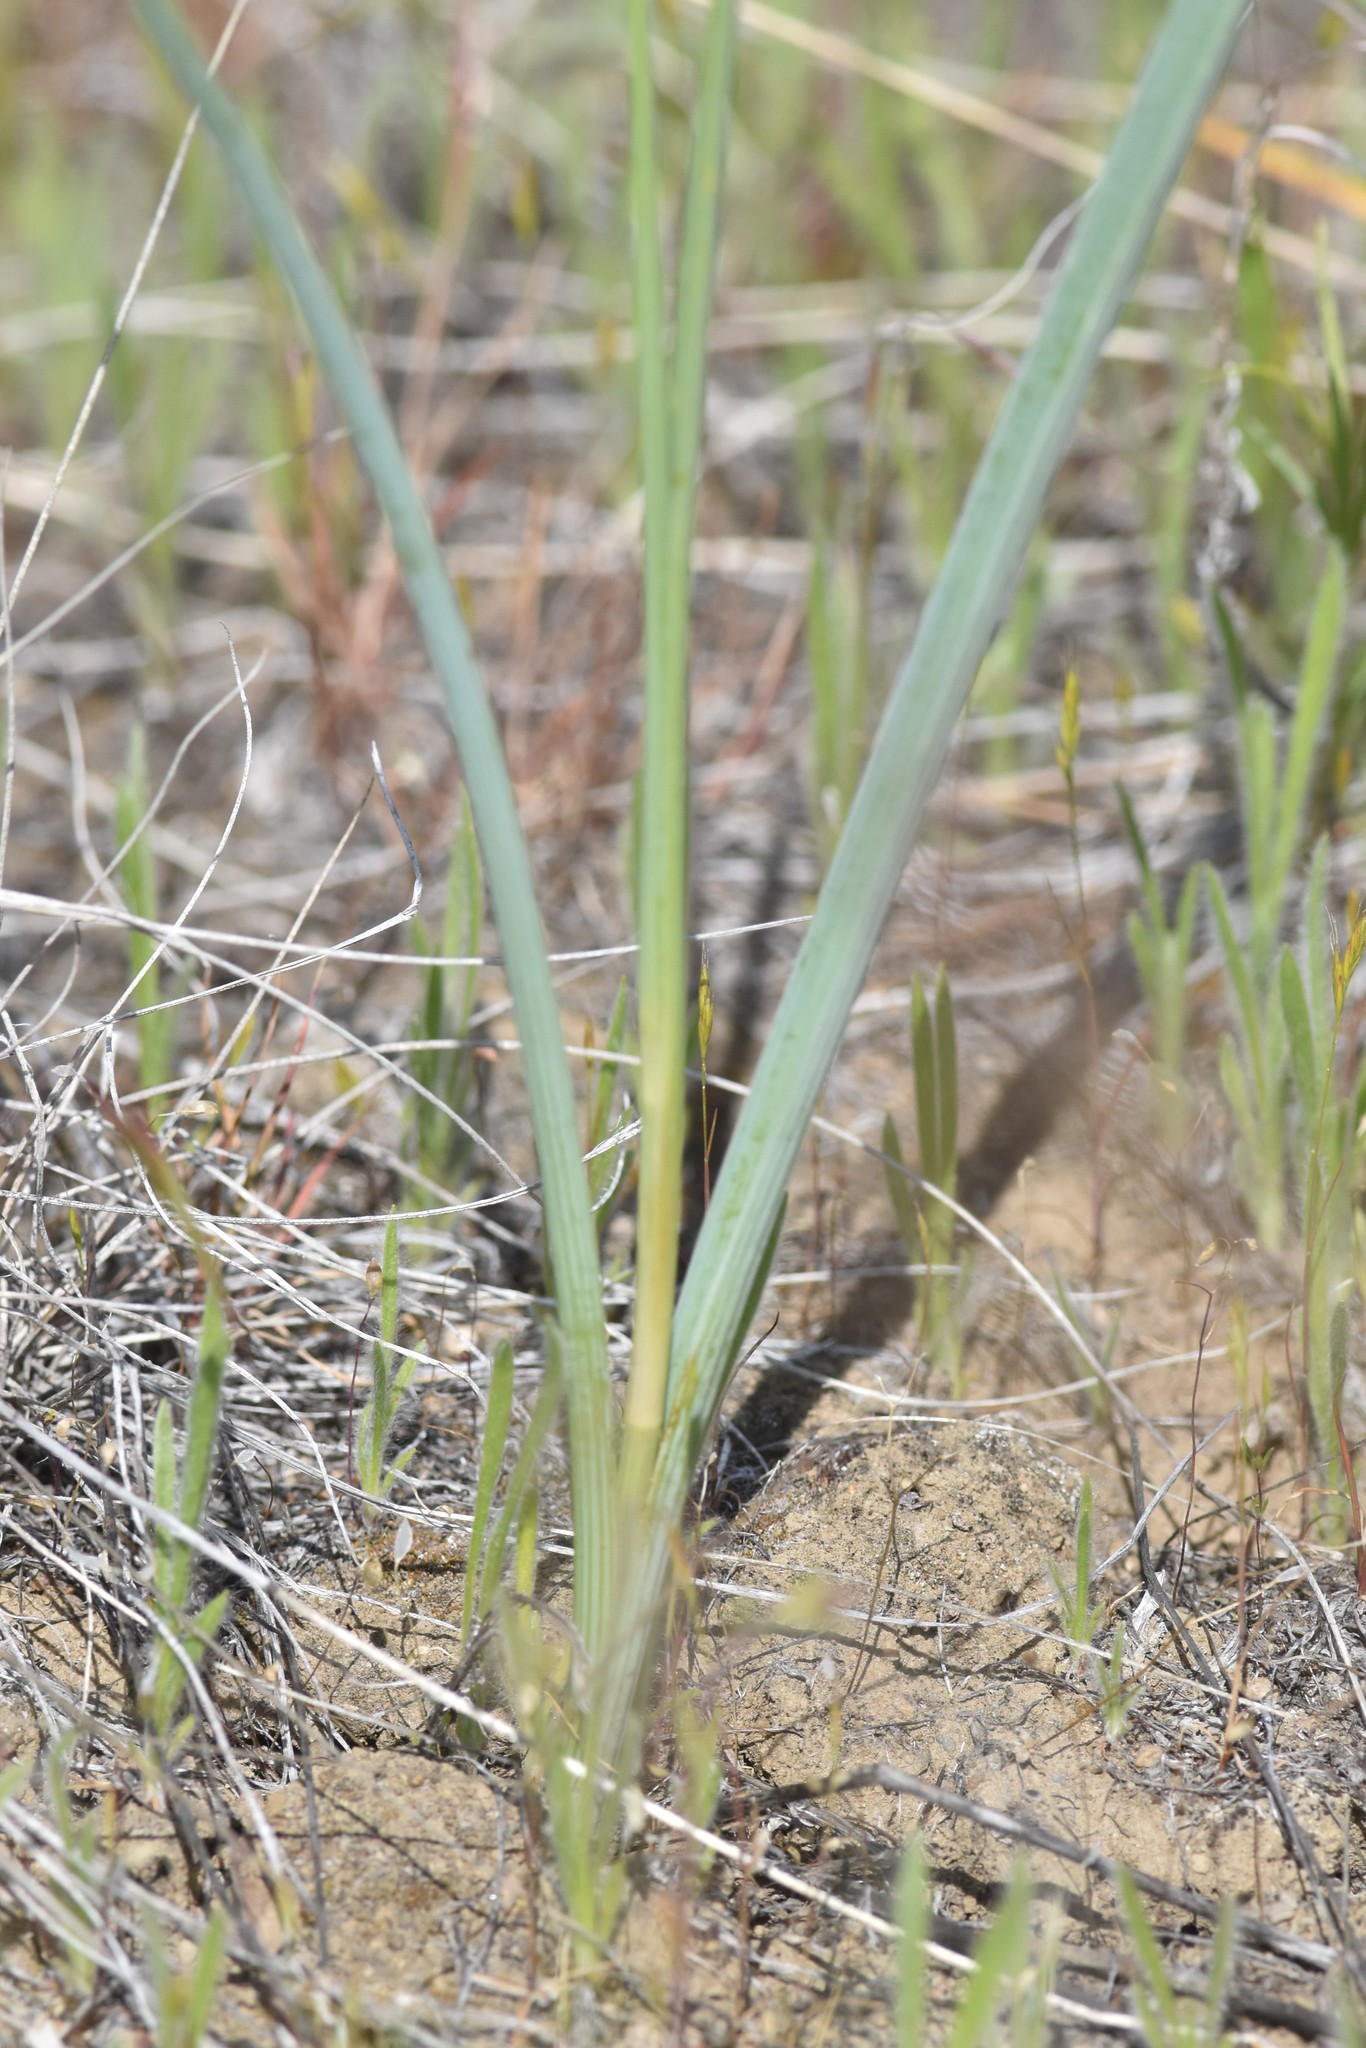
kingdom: Plantae
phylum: Tracheophyta
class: Liliopsida
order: Liliales
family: Liliaceae
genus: Calochortus
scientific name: Calochortus macrocarpus
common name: Green-band mariposa lily
